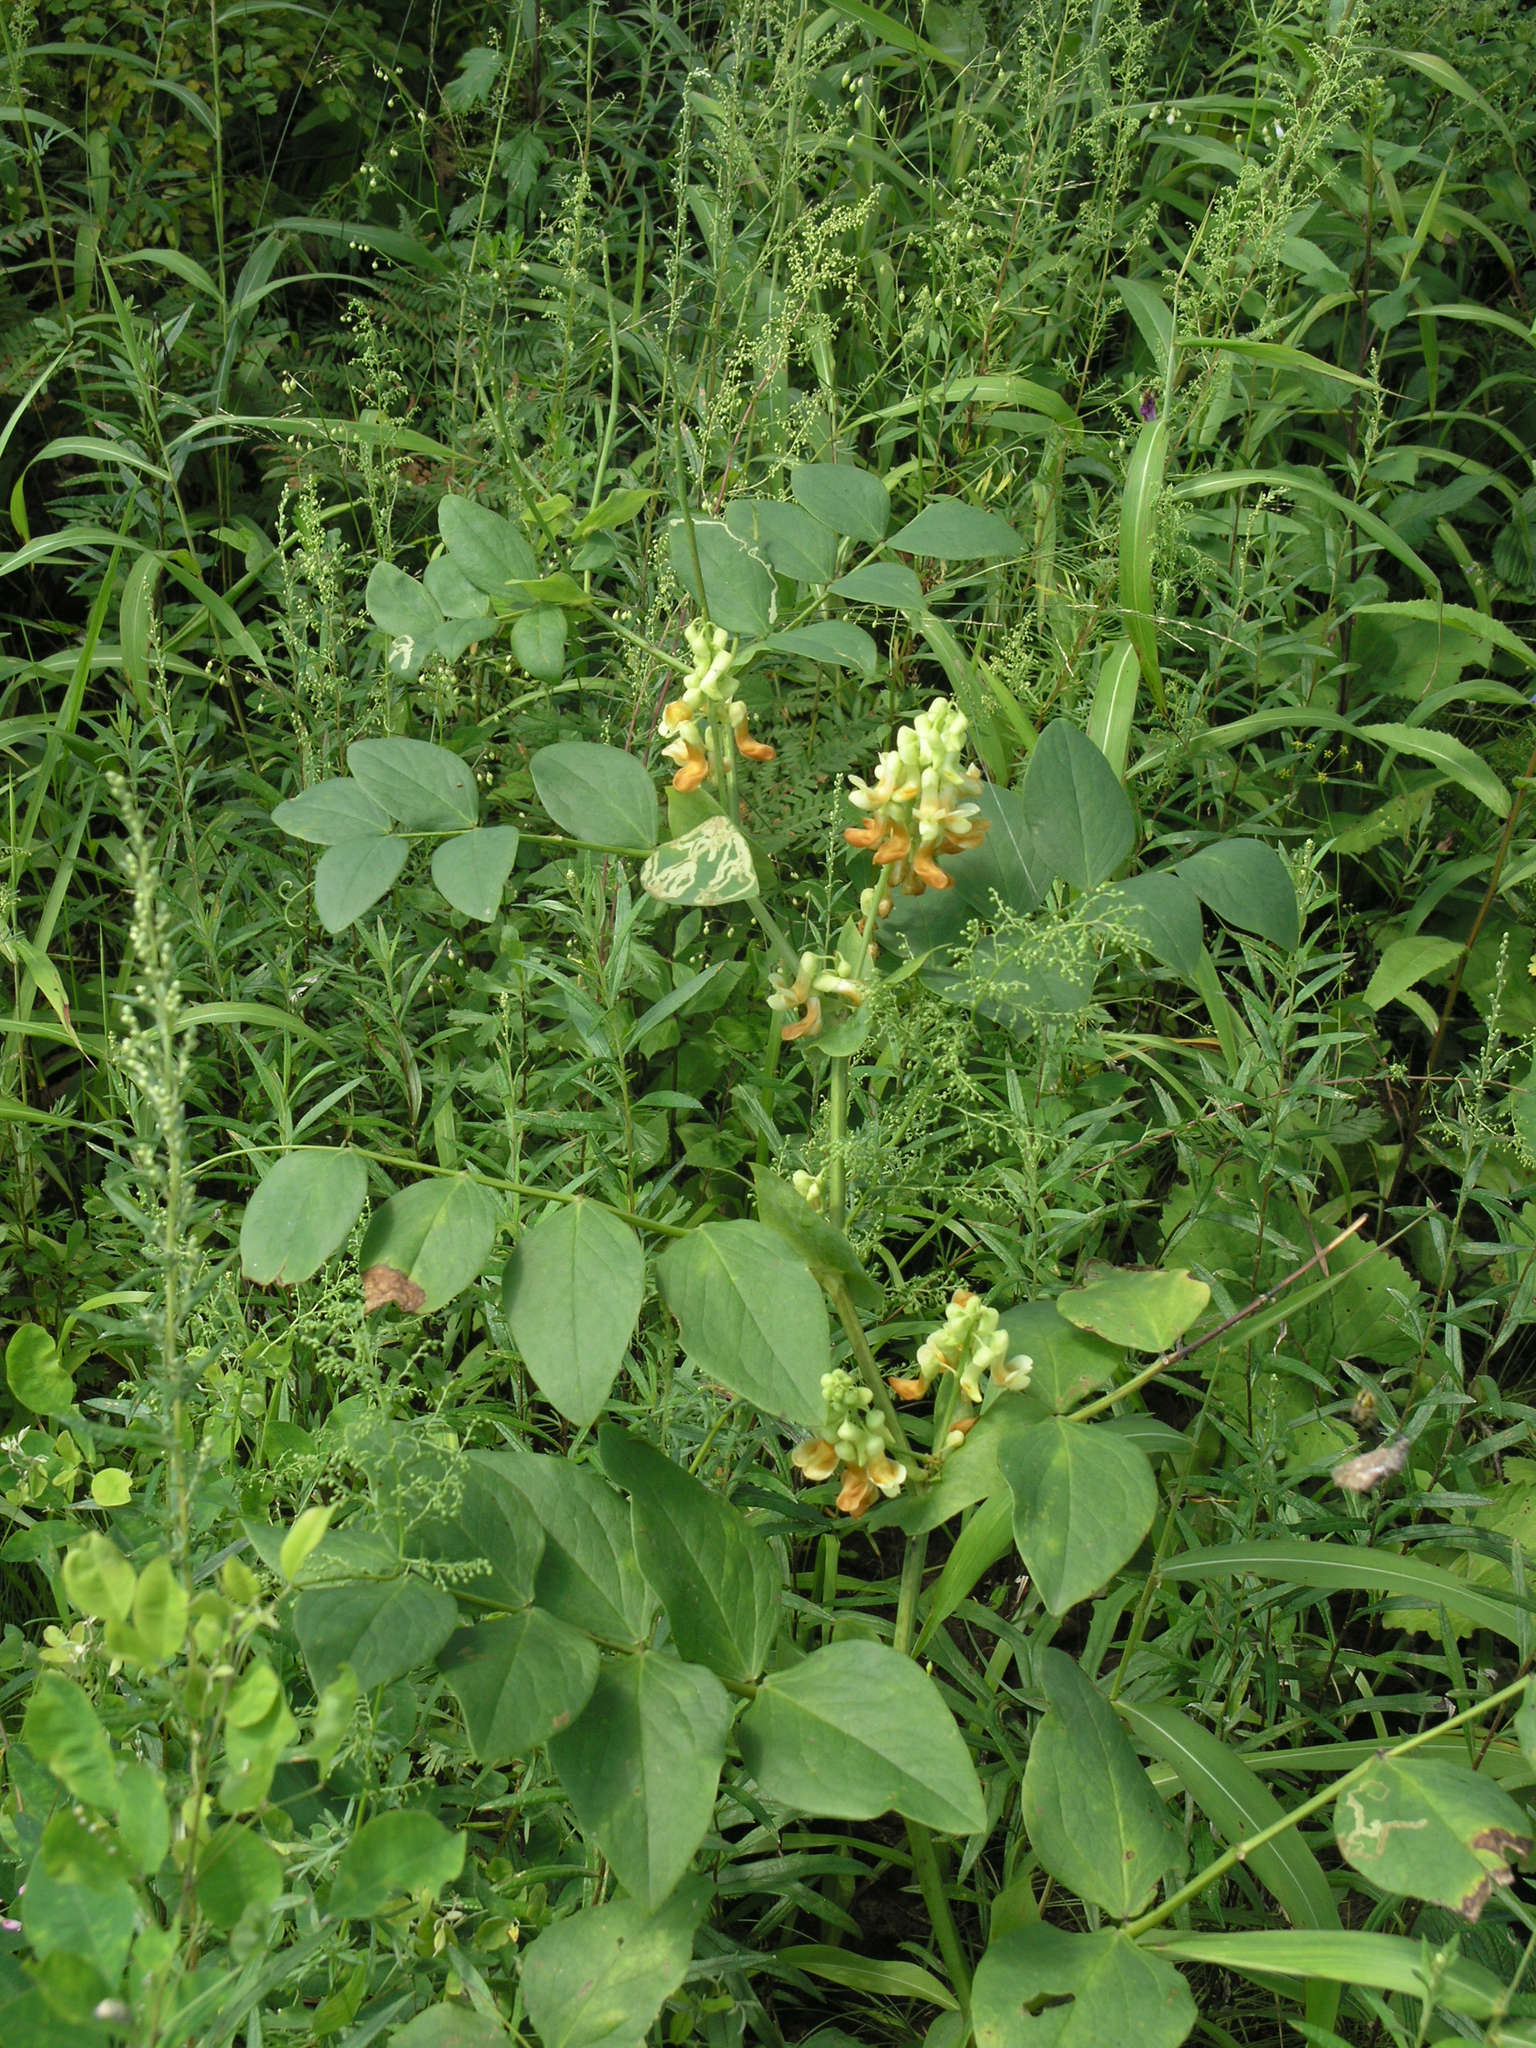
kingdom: Plantae
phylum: Tracheophyta
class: Magnoliopsida
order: Fabales
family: Fabaceae
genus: Lathyrus
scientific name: Lathyrus davidii
